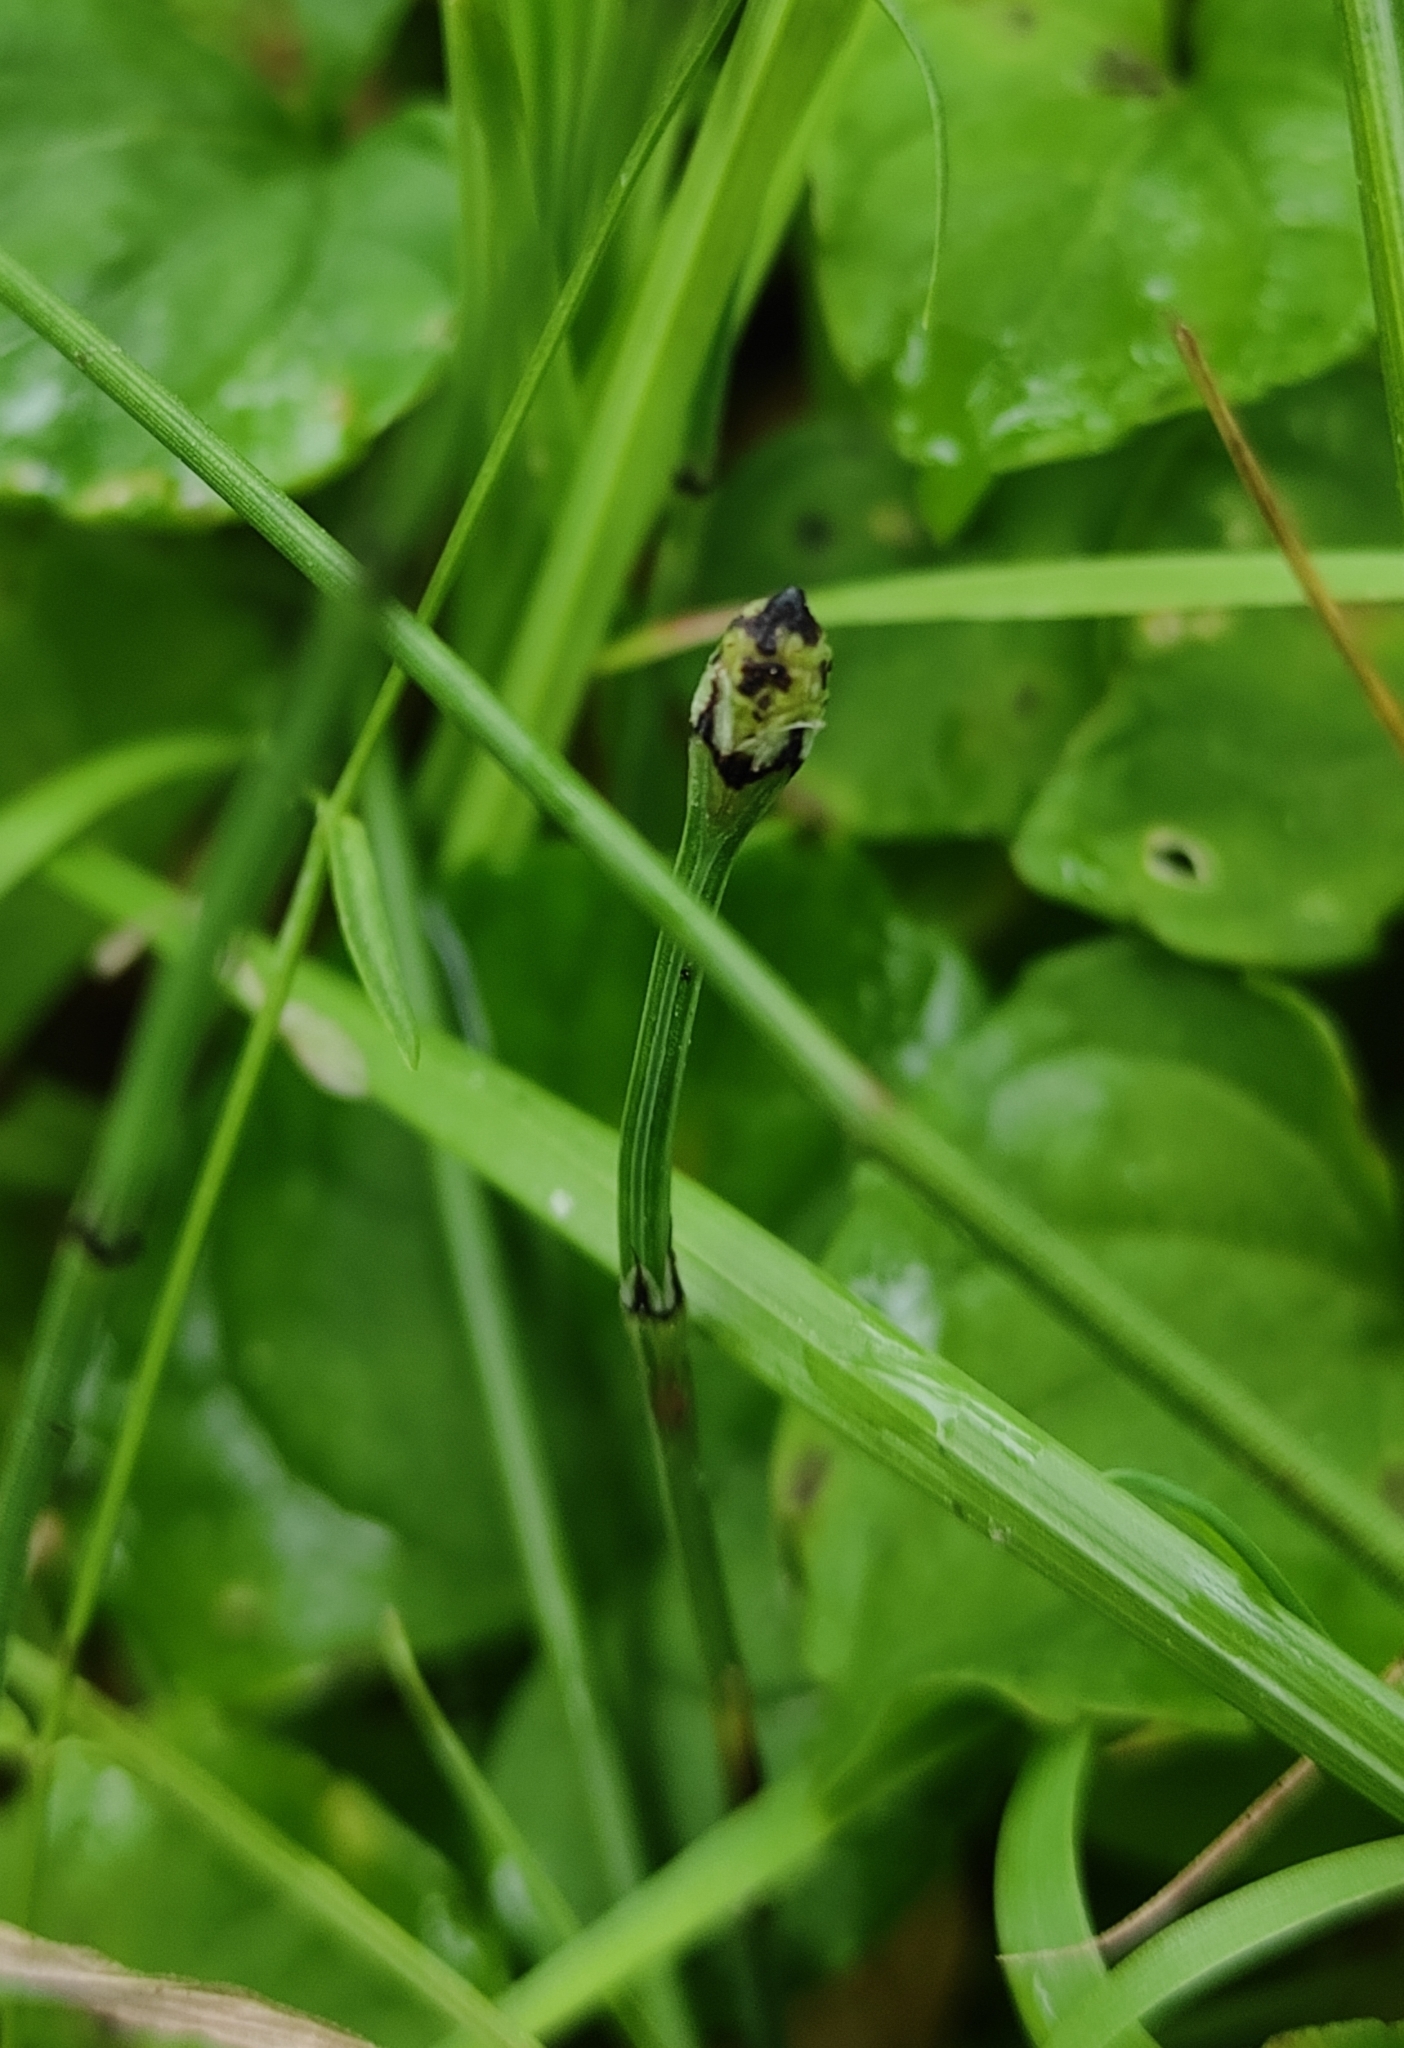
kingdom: Plantae
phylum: Tracheophyta
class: Polypodiopsida
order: Equisetales
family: Equisetaceae
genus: Equisetum
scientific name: Equisetum scirpoides
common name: Delicate horsetail
